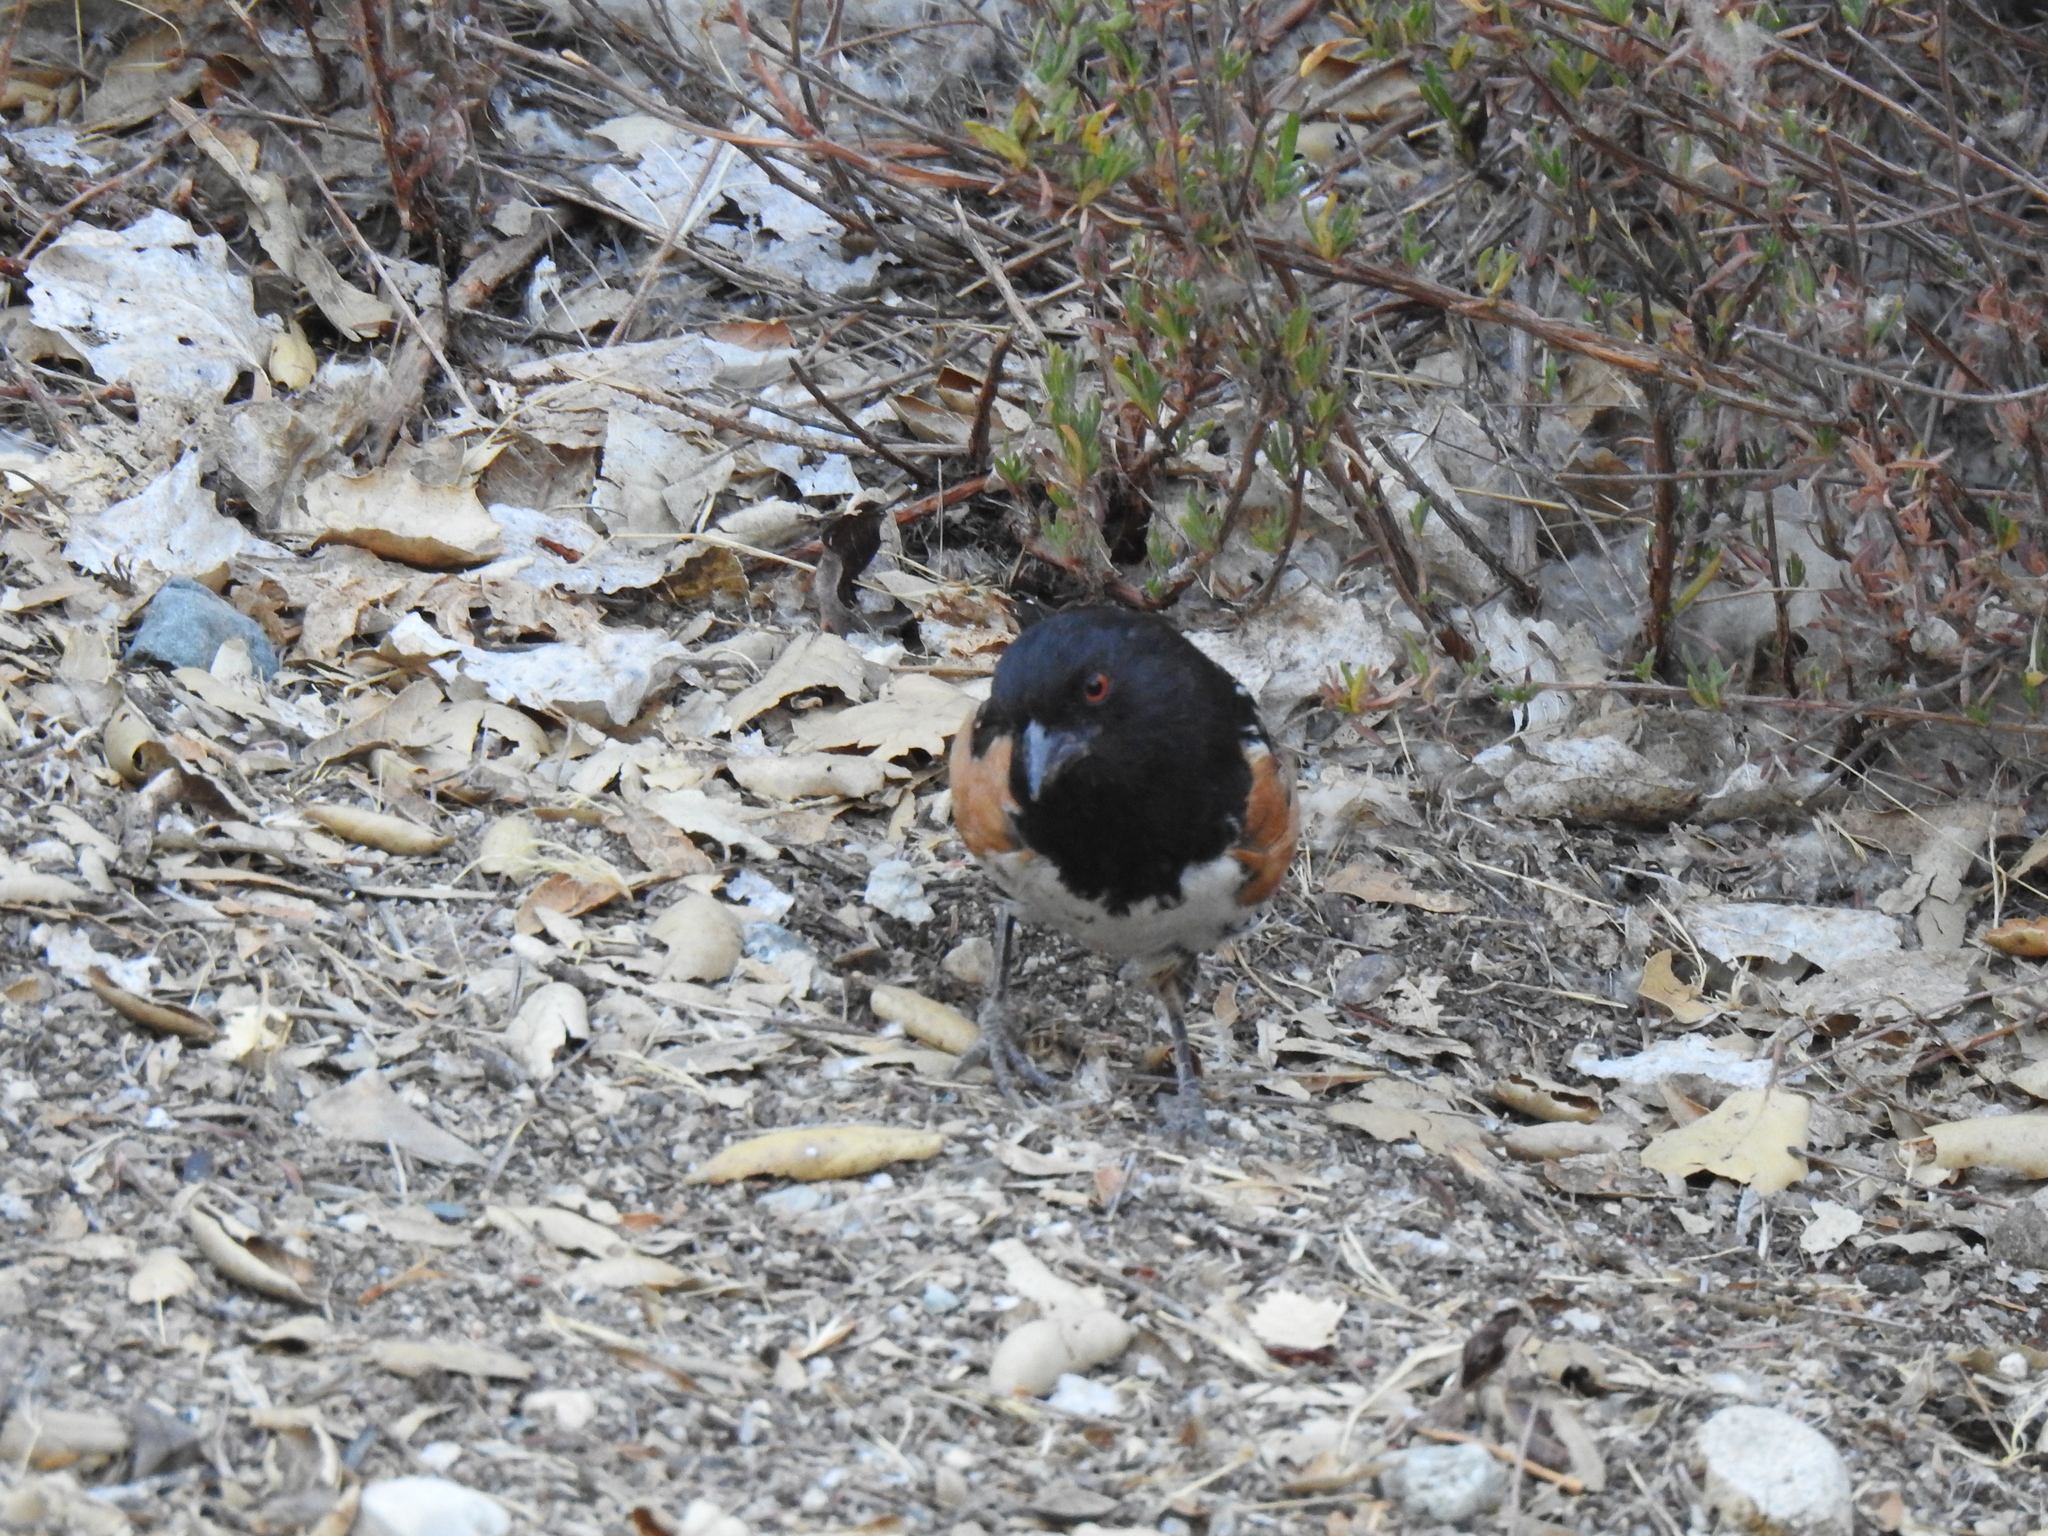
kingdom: Animalia
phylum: Chordata
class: Aves
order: Passeriformes
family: Passerellidae
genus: Pipilo
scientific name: Pipilo maculatus
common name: Spotted towhee
